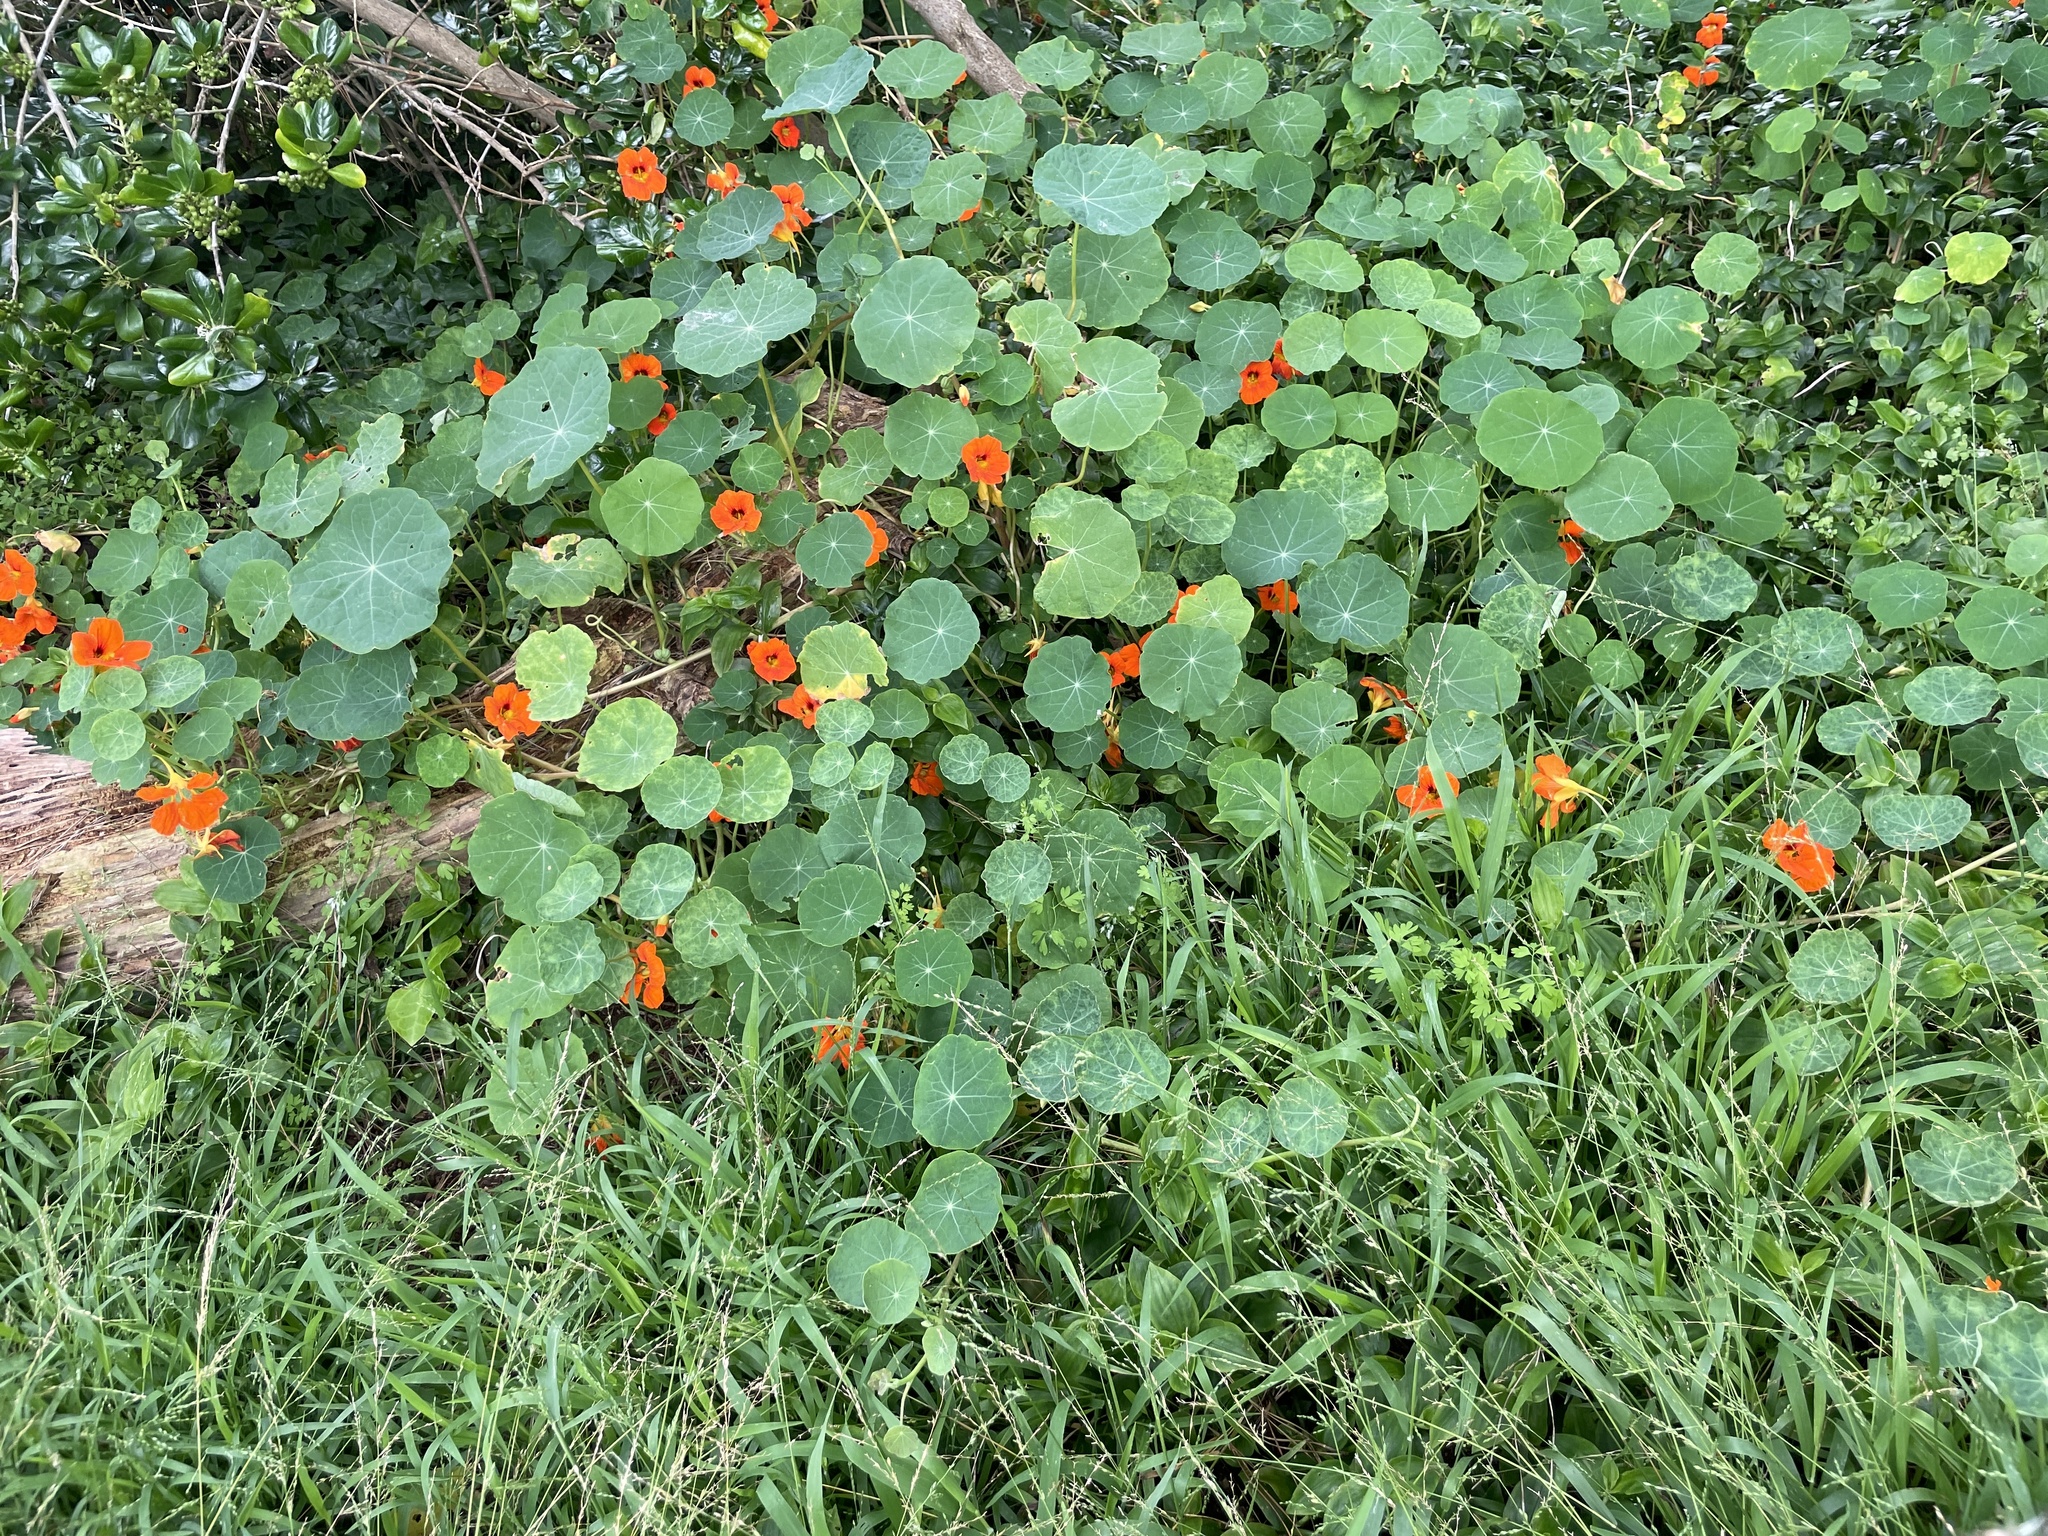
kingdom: Plantae
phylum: Tracheophyta
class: Magnoliopsida
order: Brassicales
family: Tropaeolaceae
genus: Tropaeolum
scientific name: Tropaeolum majus
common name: Nasturtium
